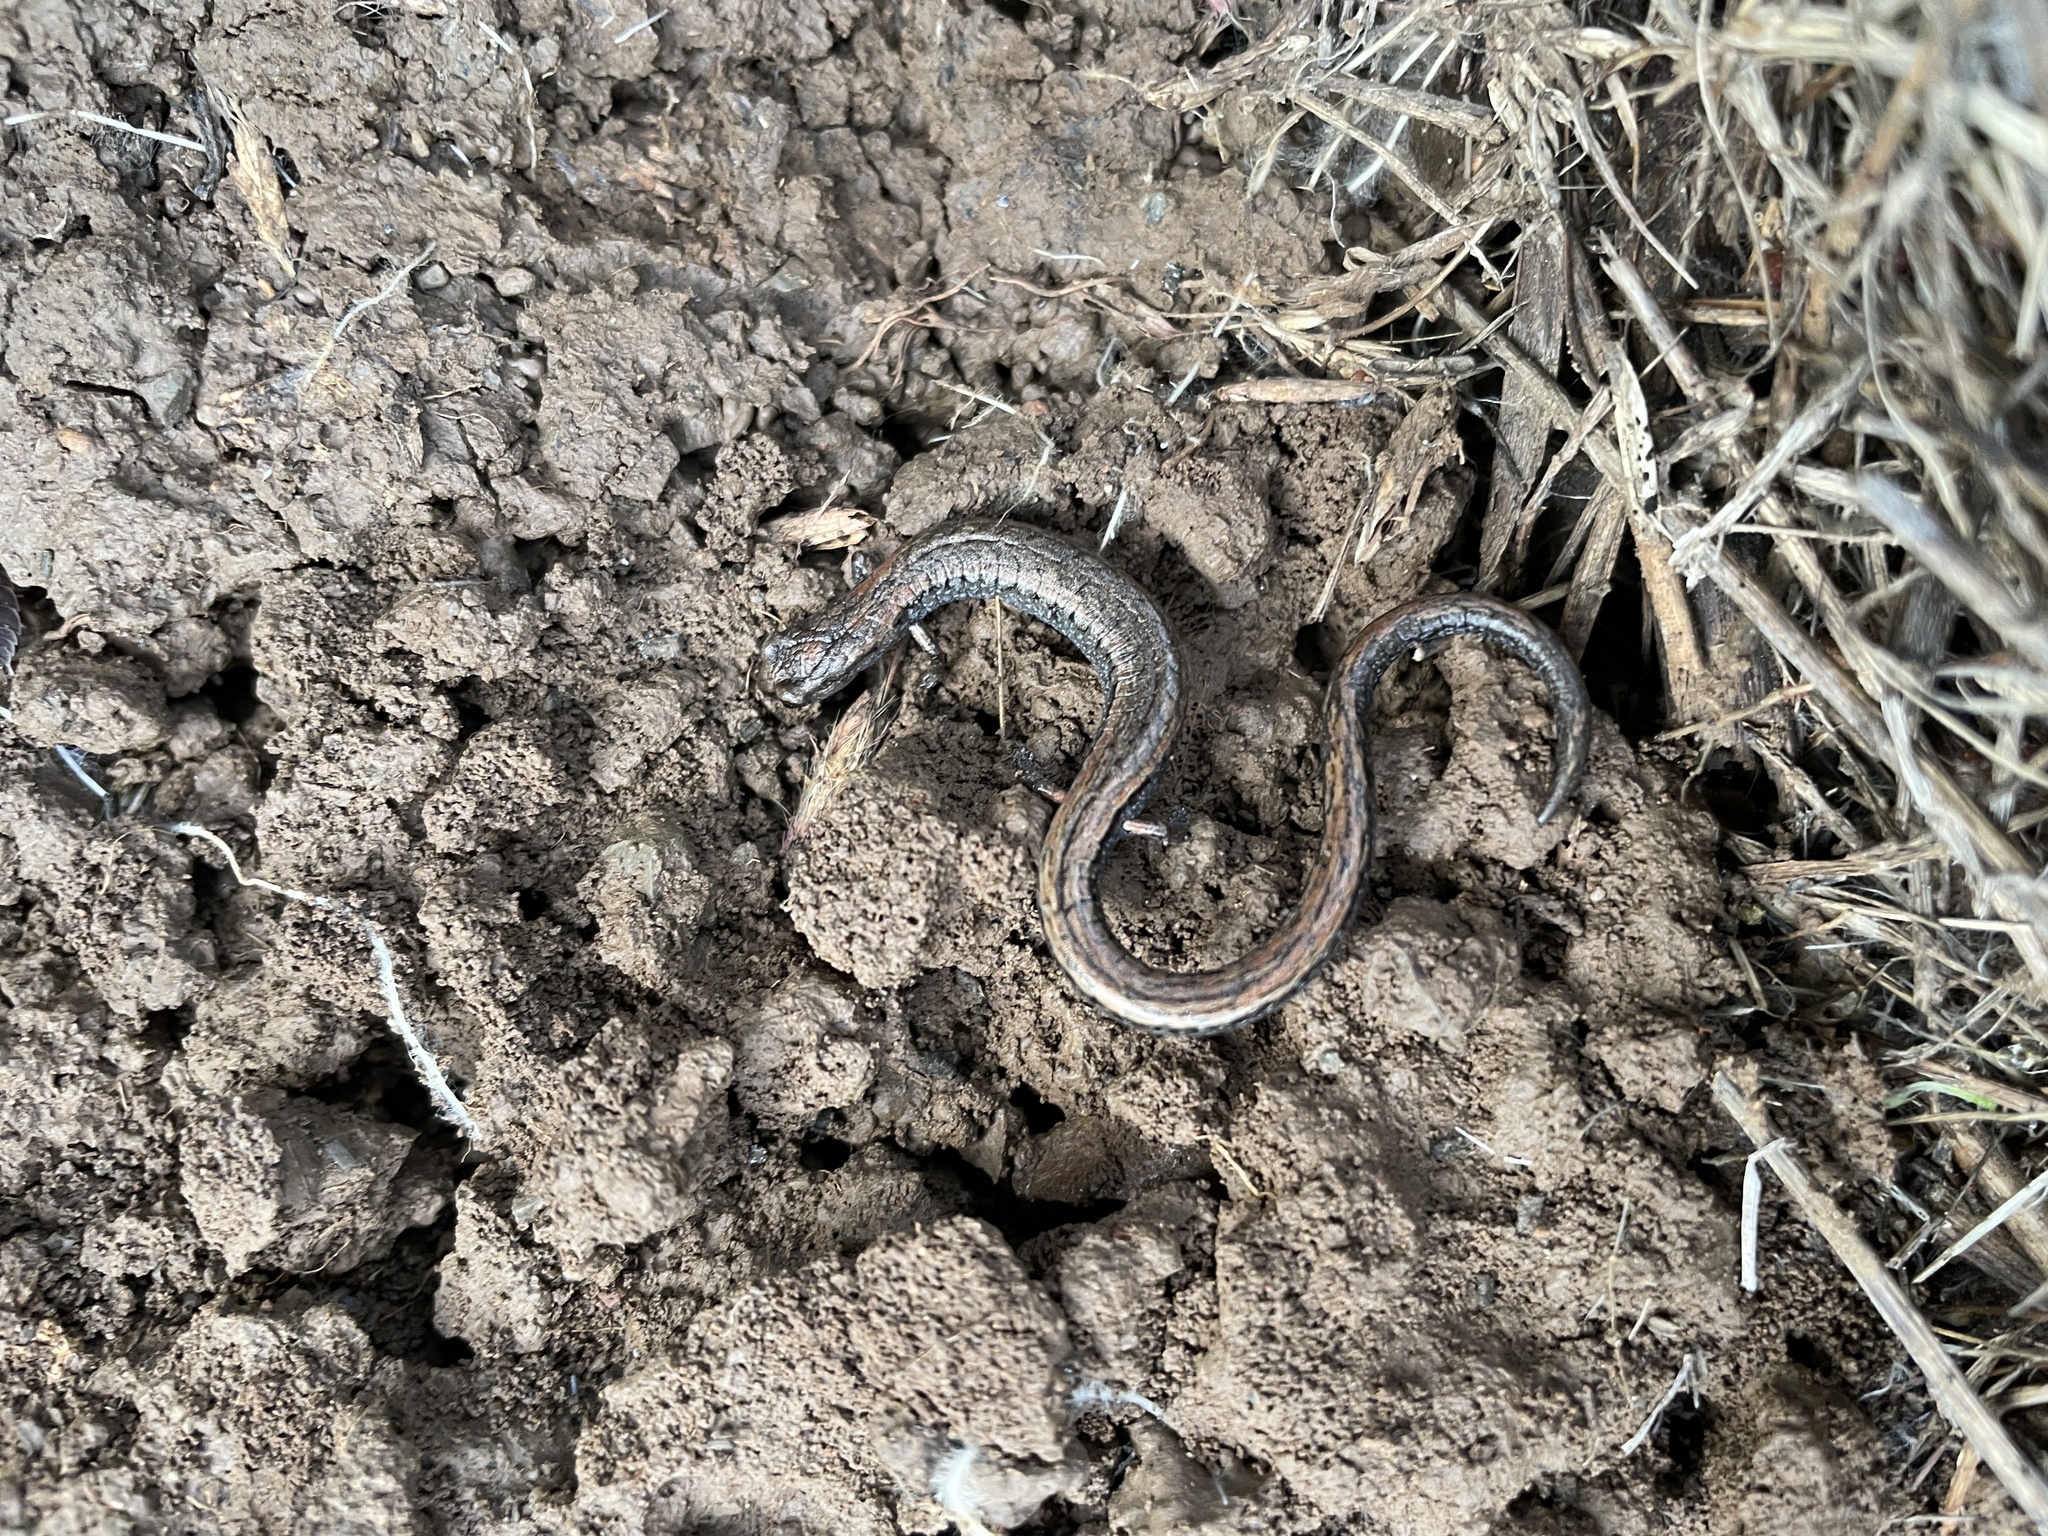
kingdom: Animalia
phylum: Chordata
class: Amphibia
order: Caudata
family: Plethodontidae
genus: Batrachoseps
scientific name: Batrachoseps attenuatus
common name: California slender salamander
